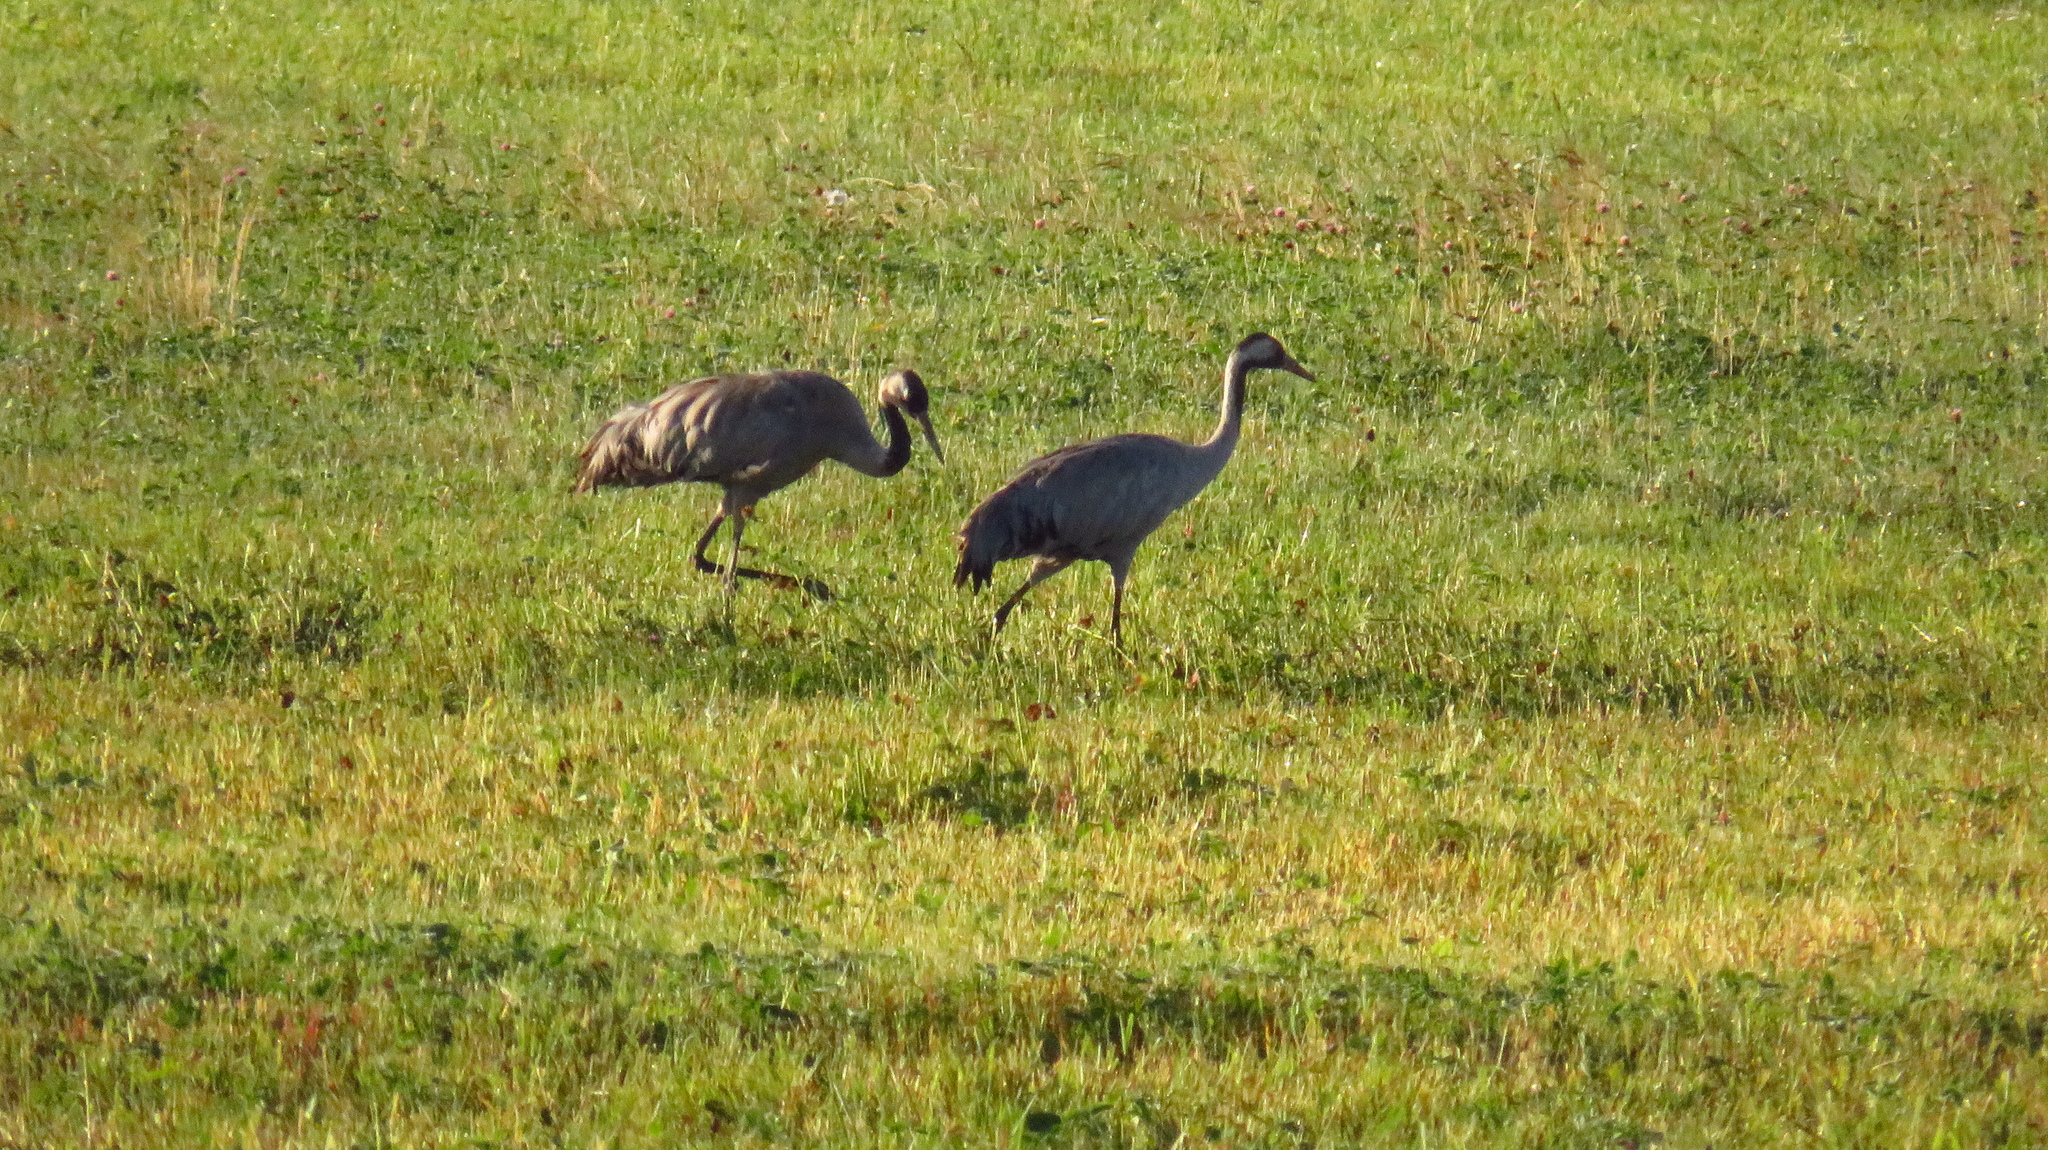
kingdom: Animalia
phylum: Chordata
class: Aves
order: Gruiformes
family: Gruidae
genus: Grus
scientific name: Grus grus
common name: Common crane
